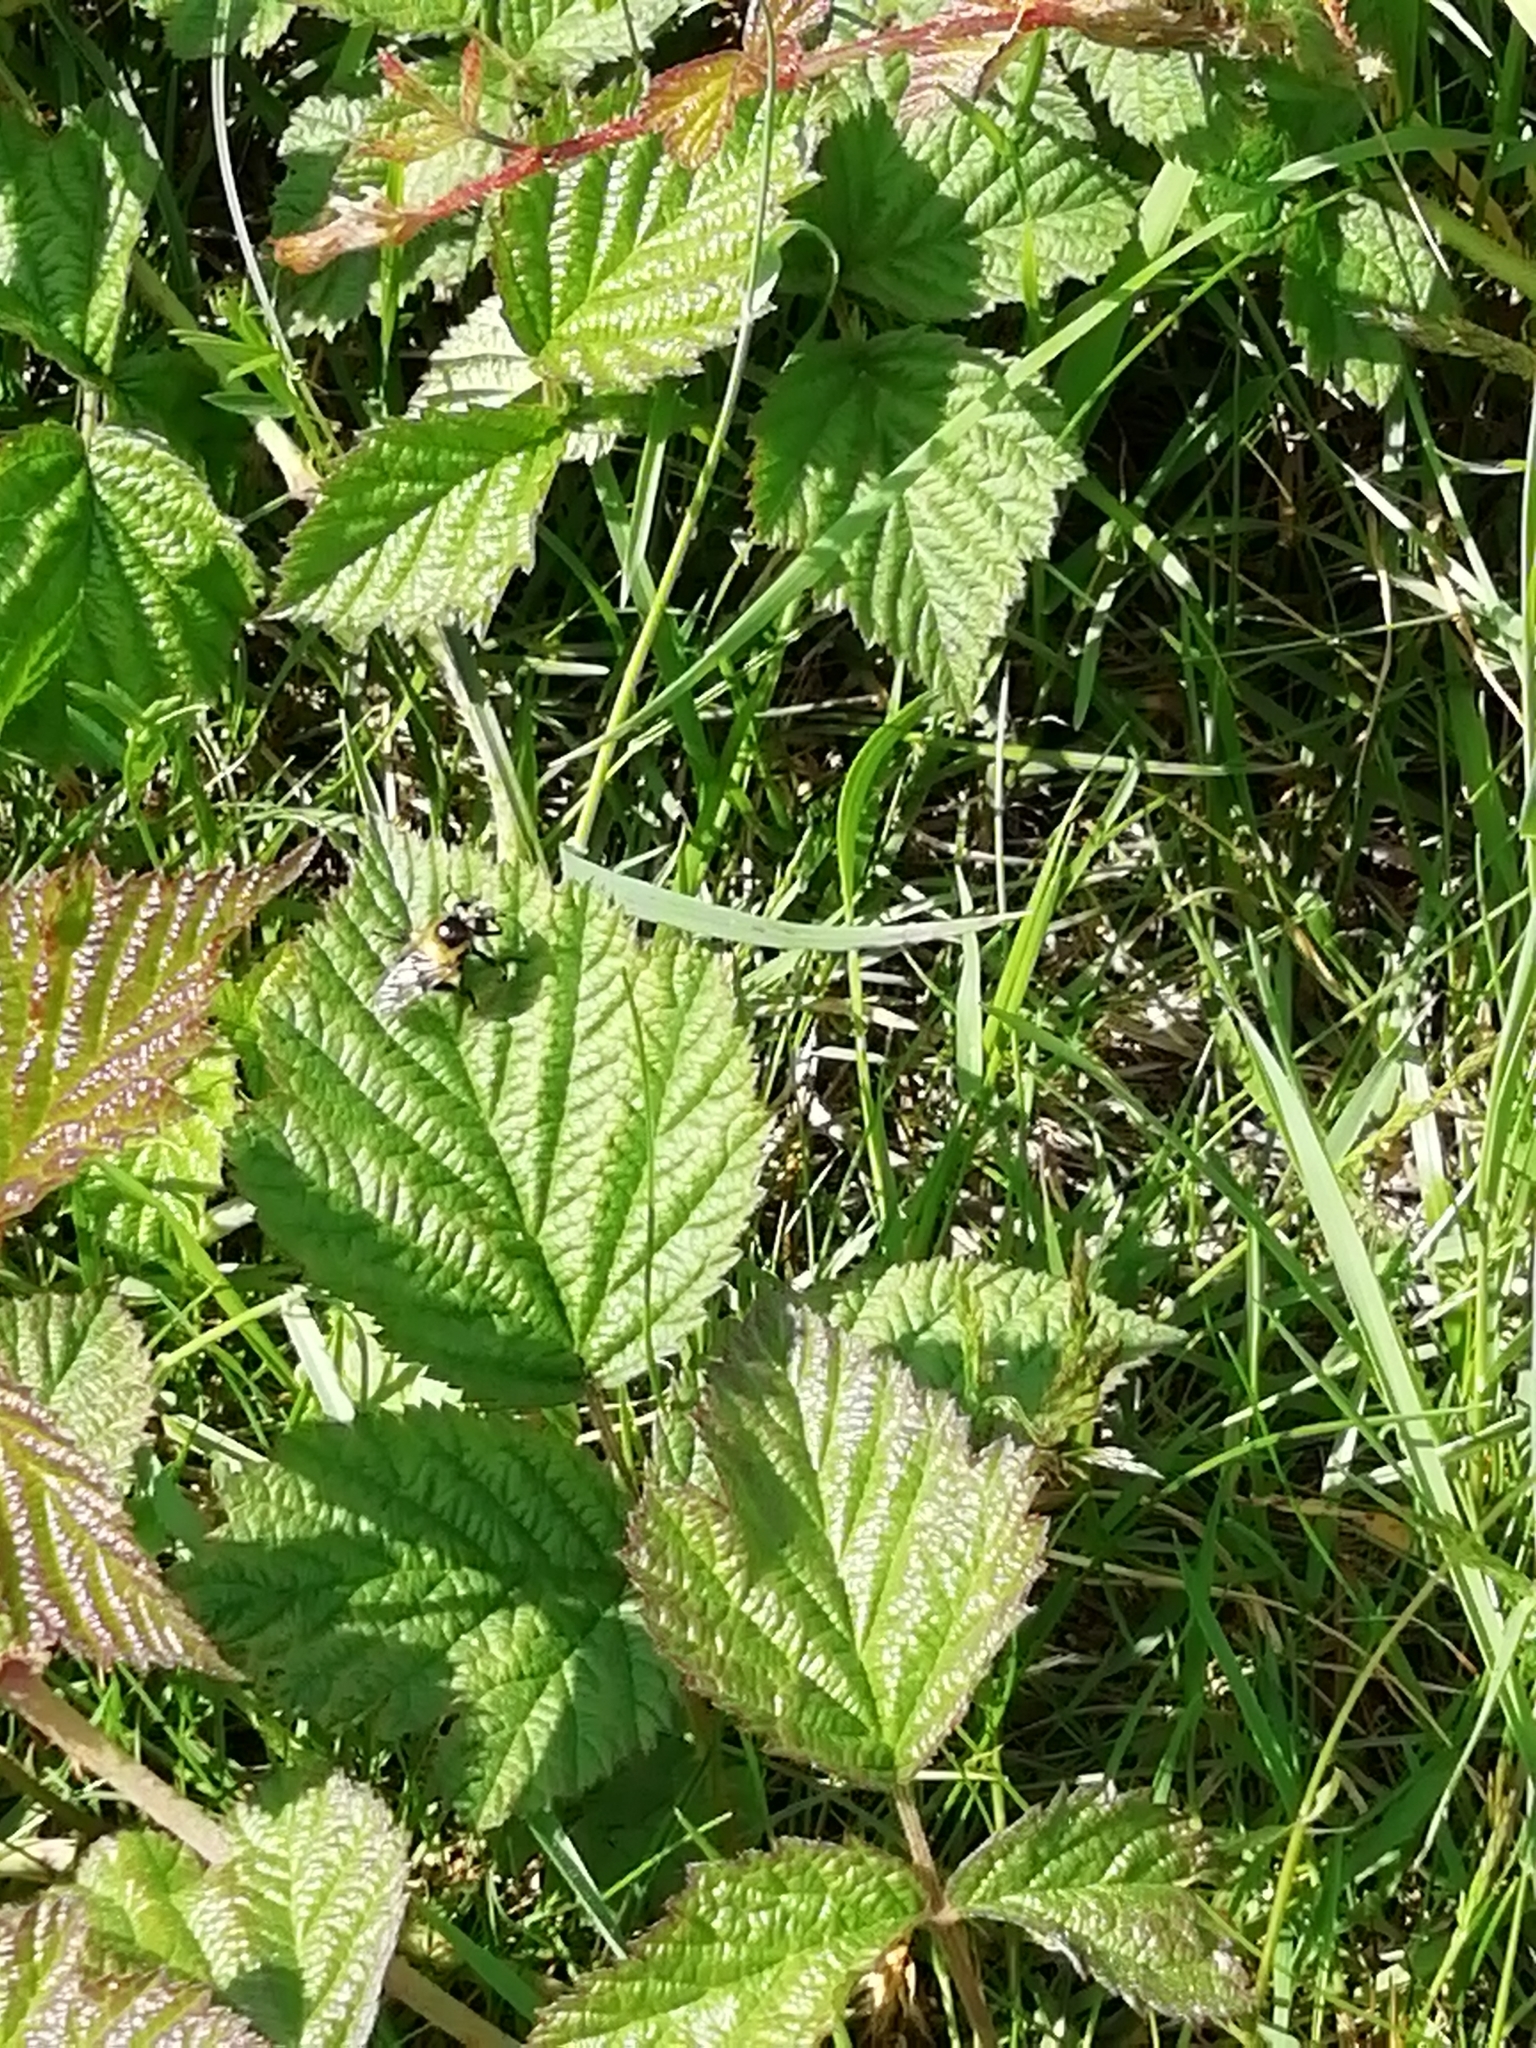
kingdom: Animalia
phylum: Arthropoda
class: Insecta
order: Diptera
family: Syrphidae
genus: Volucella
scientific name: Volucella bombylans
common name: Bumble bee hover fly
